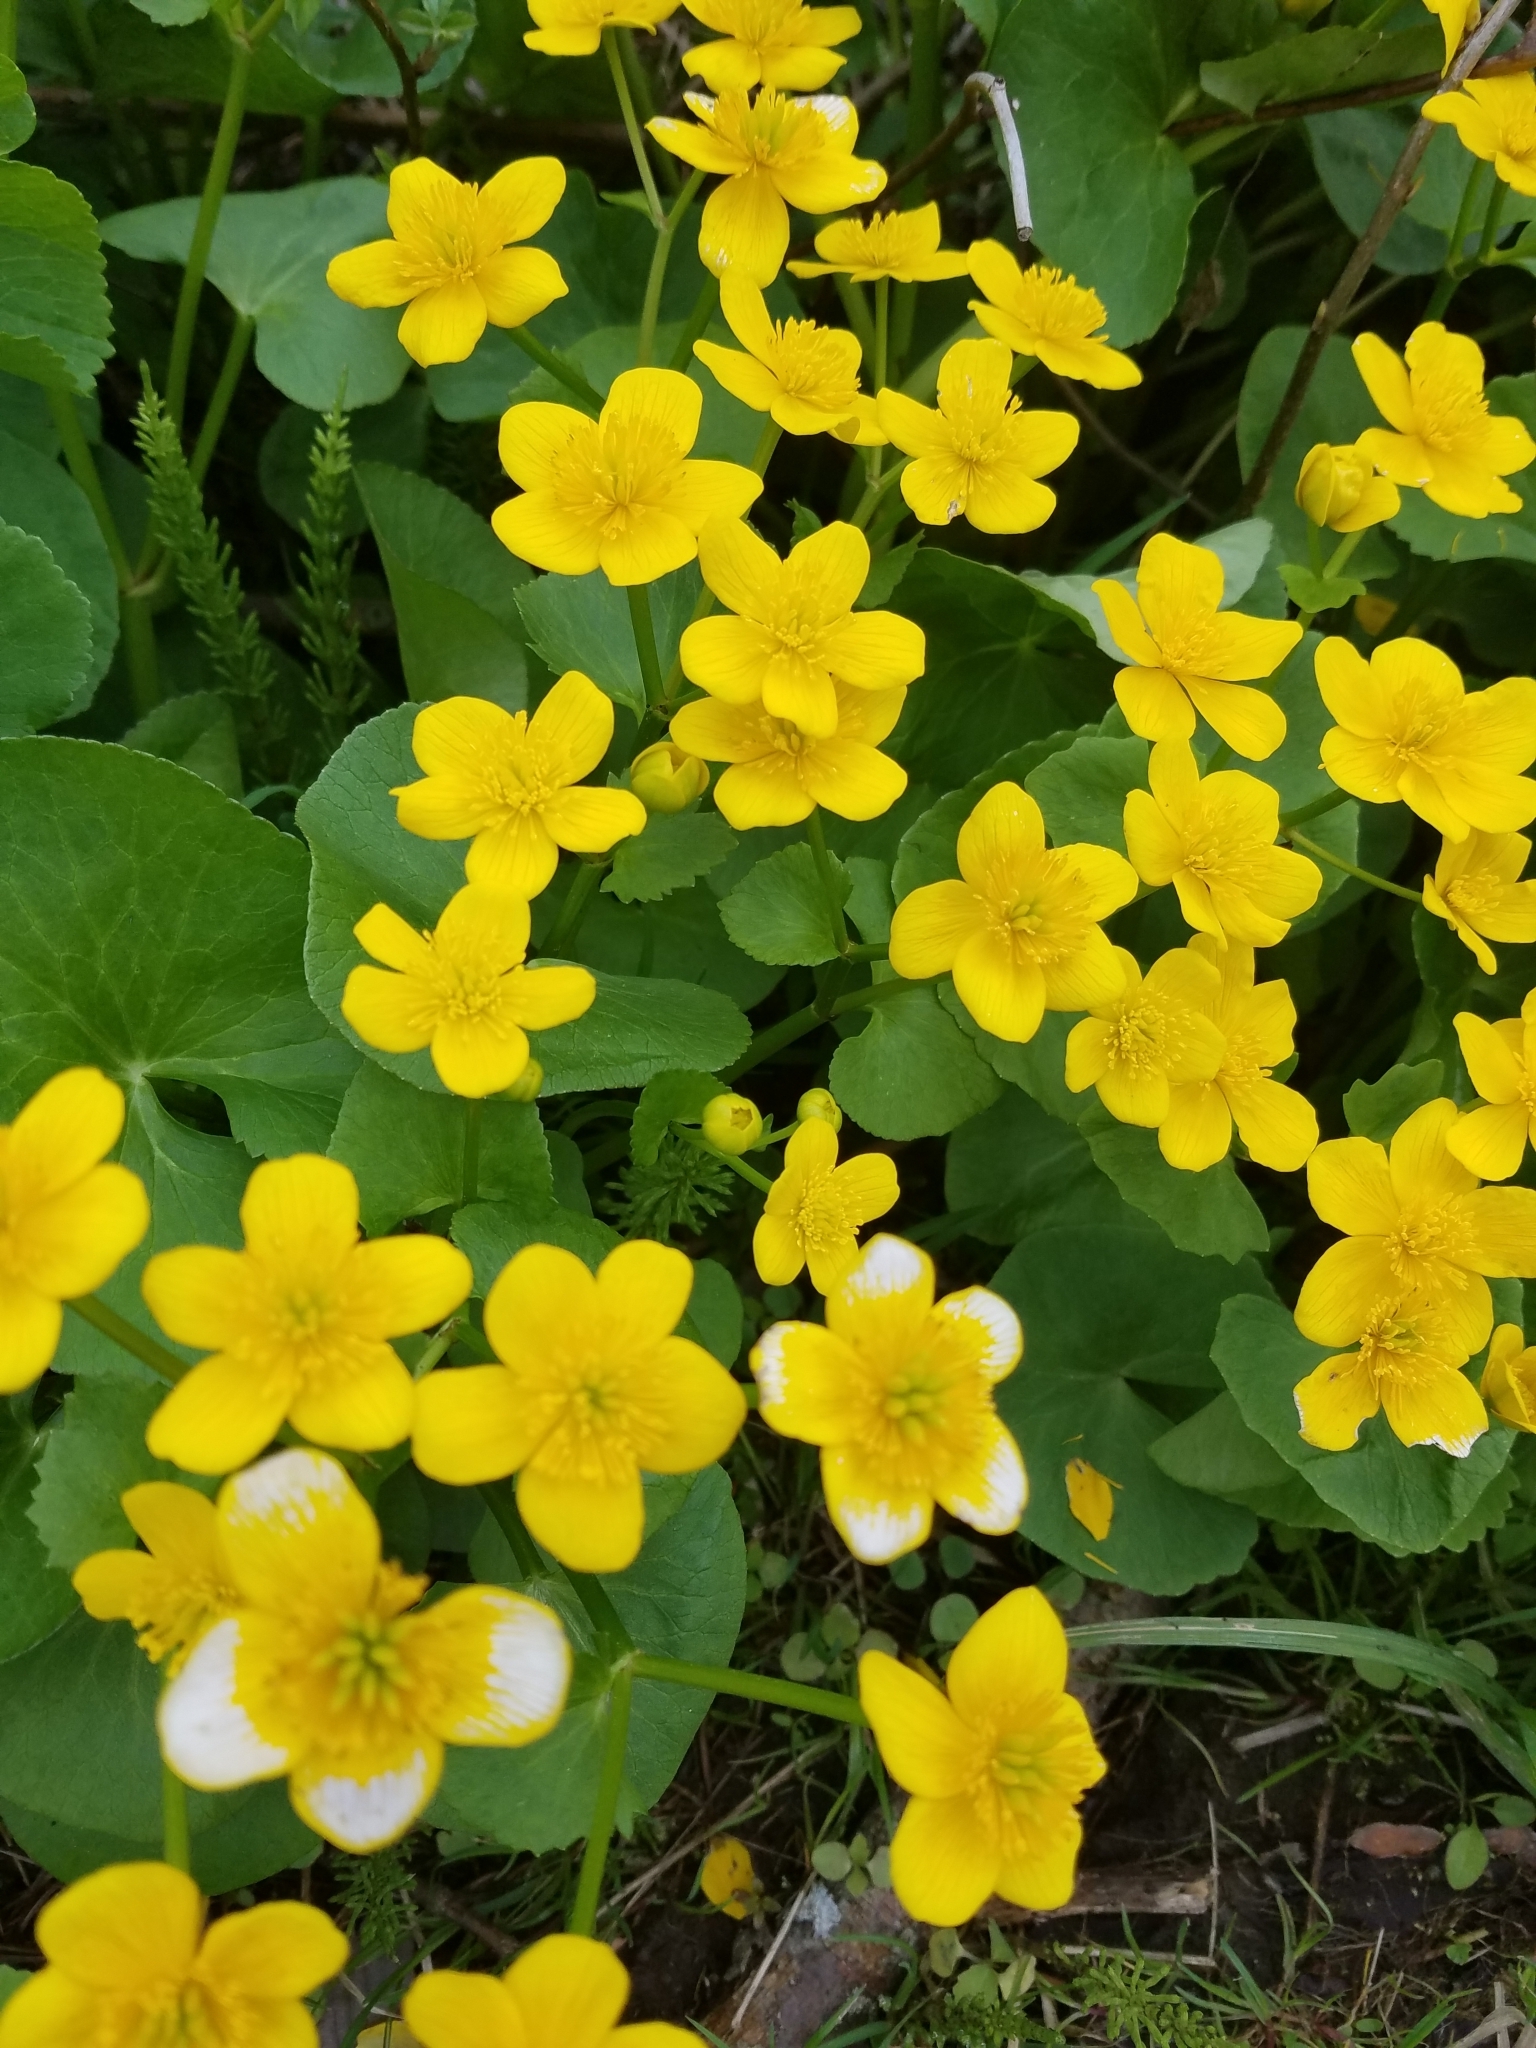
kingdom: Plantae
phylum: Tracheophyta
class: Magnoliopsida
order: Ranunculales
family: Ranunculaceae
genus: Caltha
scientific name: Caltha palustris
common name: Marsh marigold
